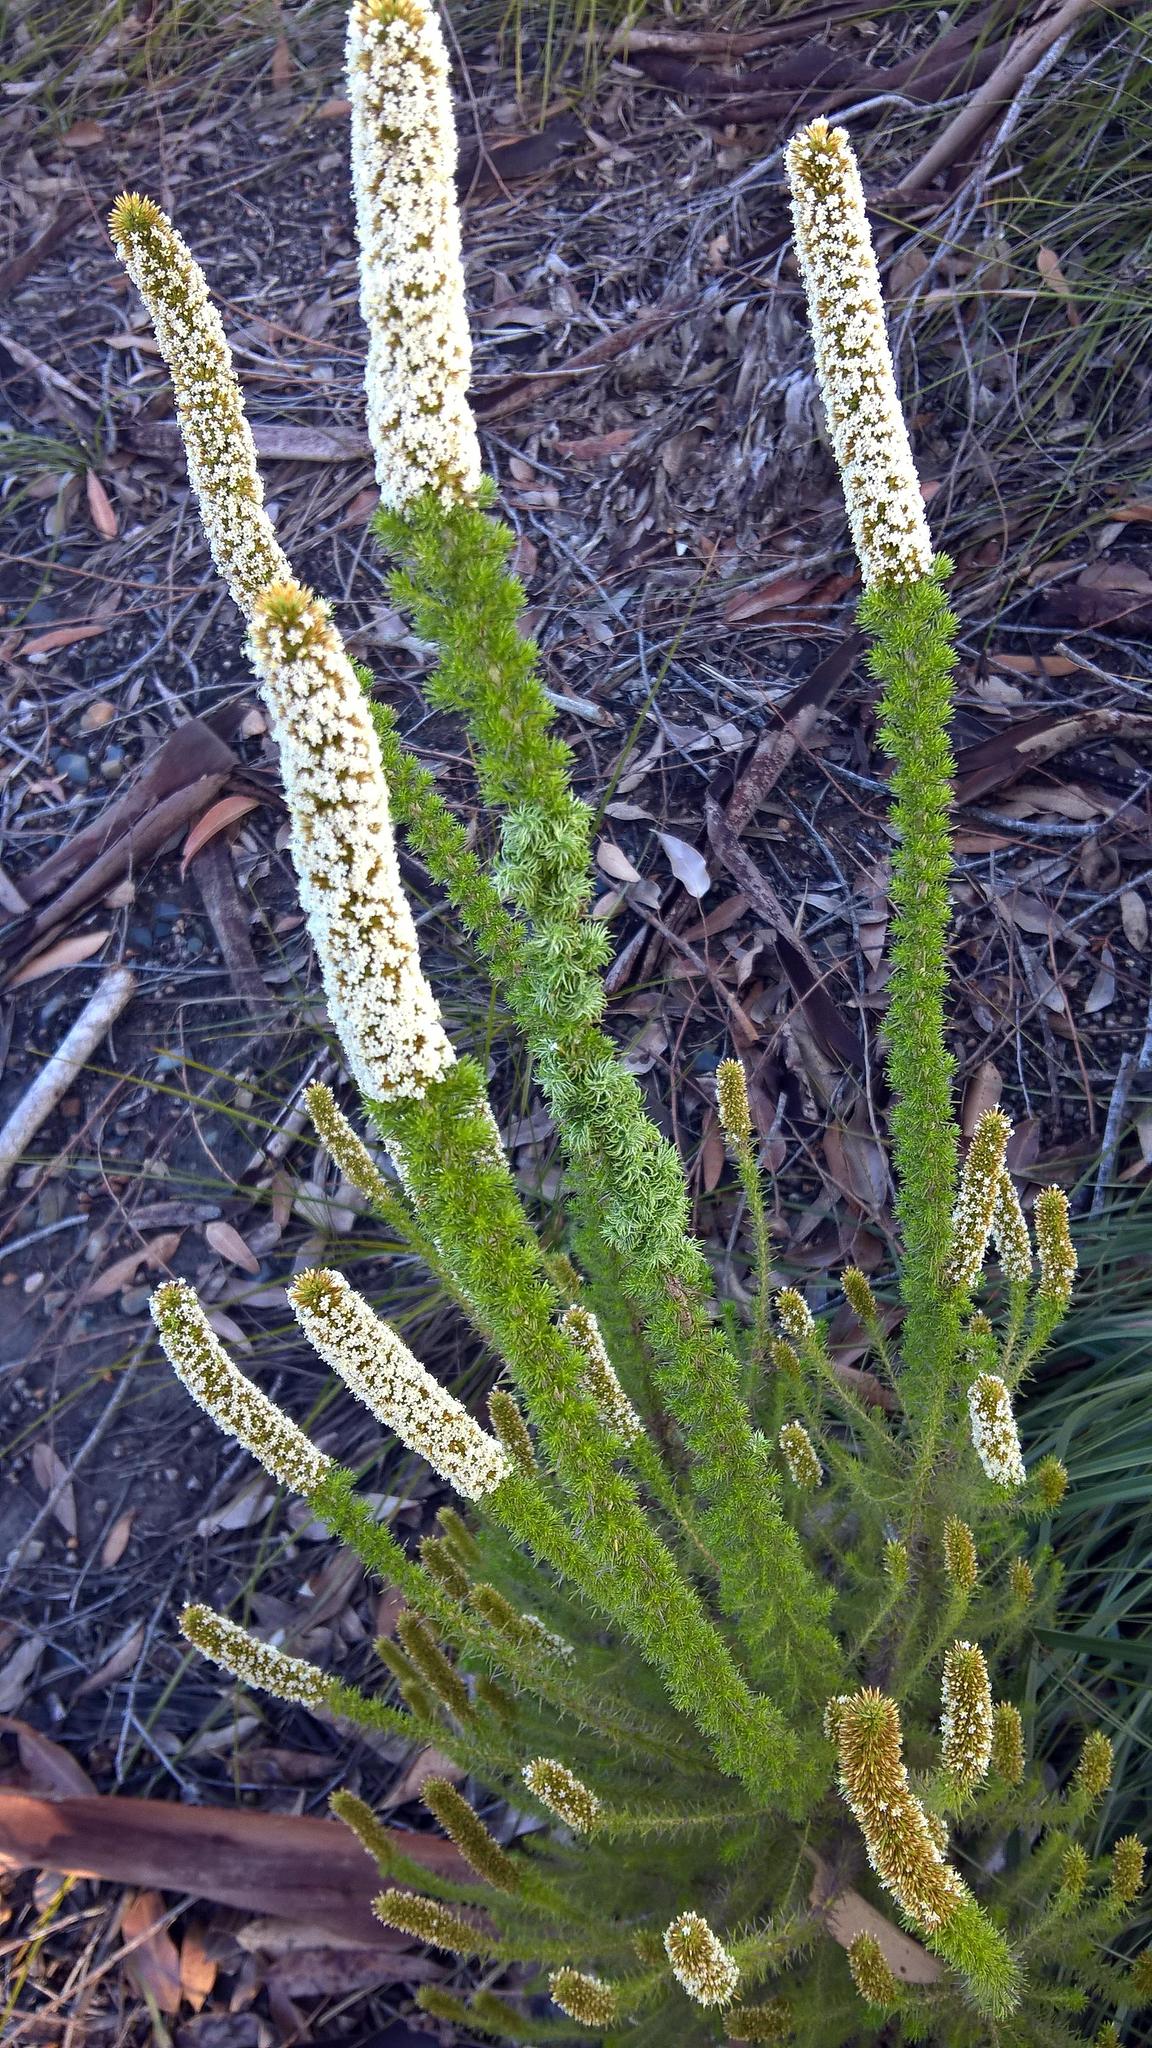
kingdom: Plantae
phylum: Tracheophyta
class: Magnoliopsida
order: Asterales
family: Asteraceae
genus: Stoebe
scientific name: Stoebe alopecuroides
